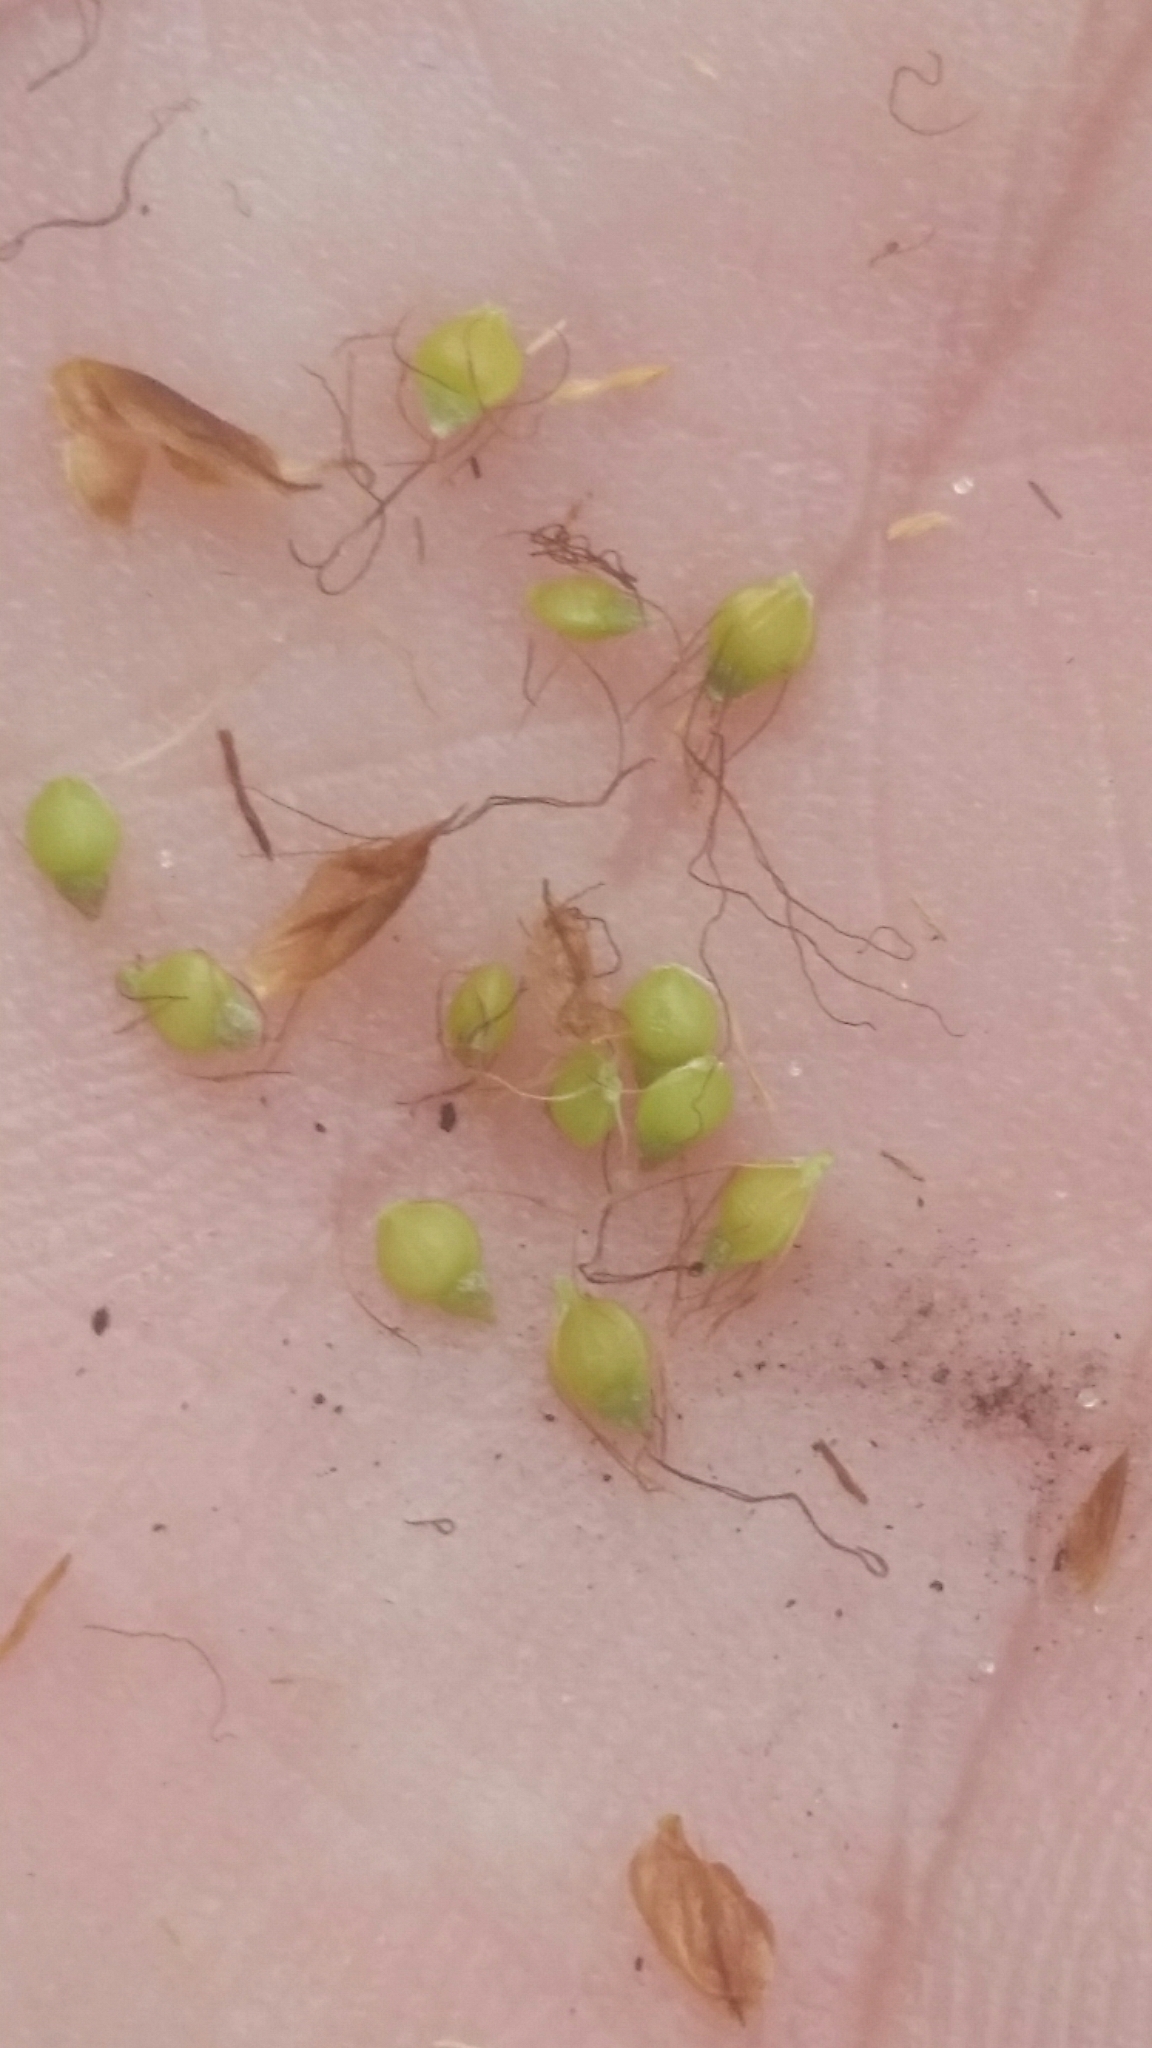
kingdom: Plantae
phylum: Tracheophyta
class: Liliopsida
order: Poales
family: Cyperaceae
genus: Rhynchospora
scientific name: Rhynchospora odorata
